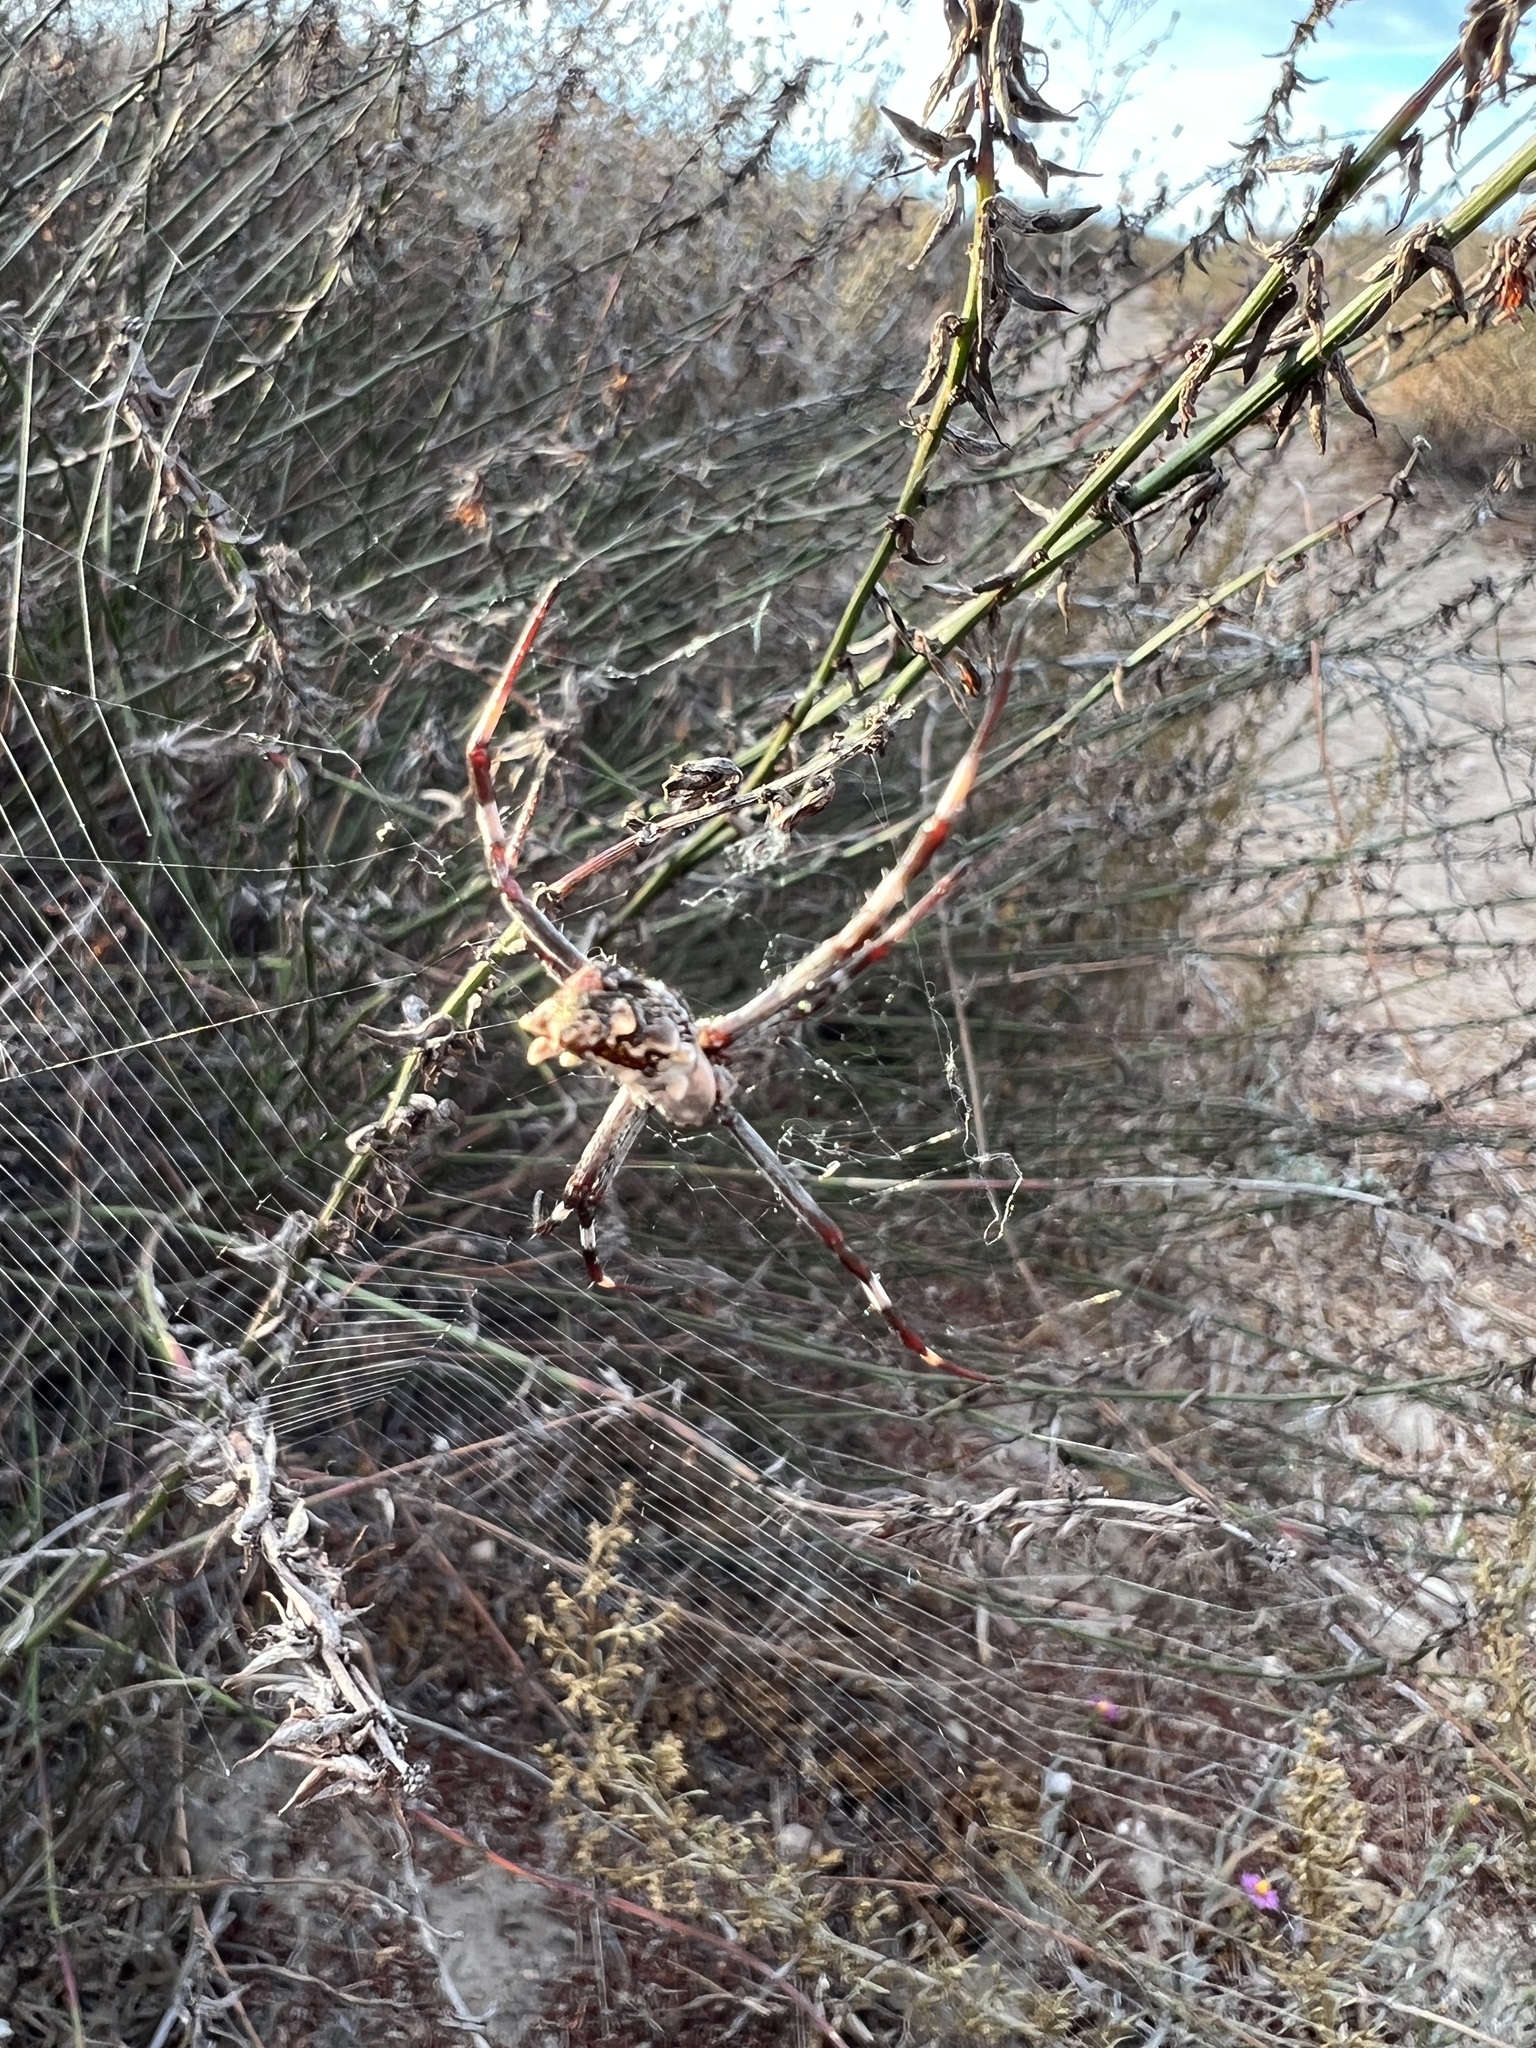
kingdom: Animalia
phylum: Arthropoda
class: Arachnida
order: Araneae
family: Araneidae
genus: Argiope
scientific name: Argiope argentata
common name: Orb weavers
